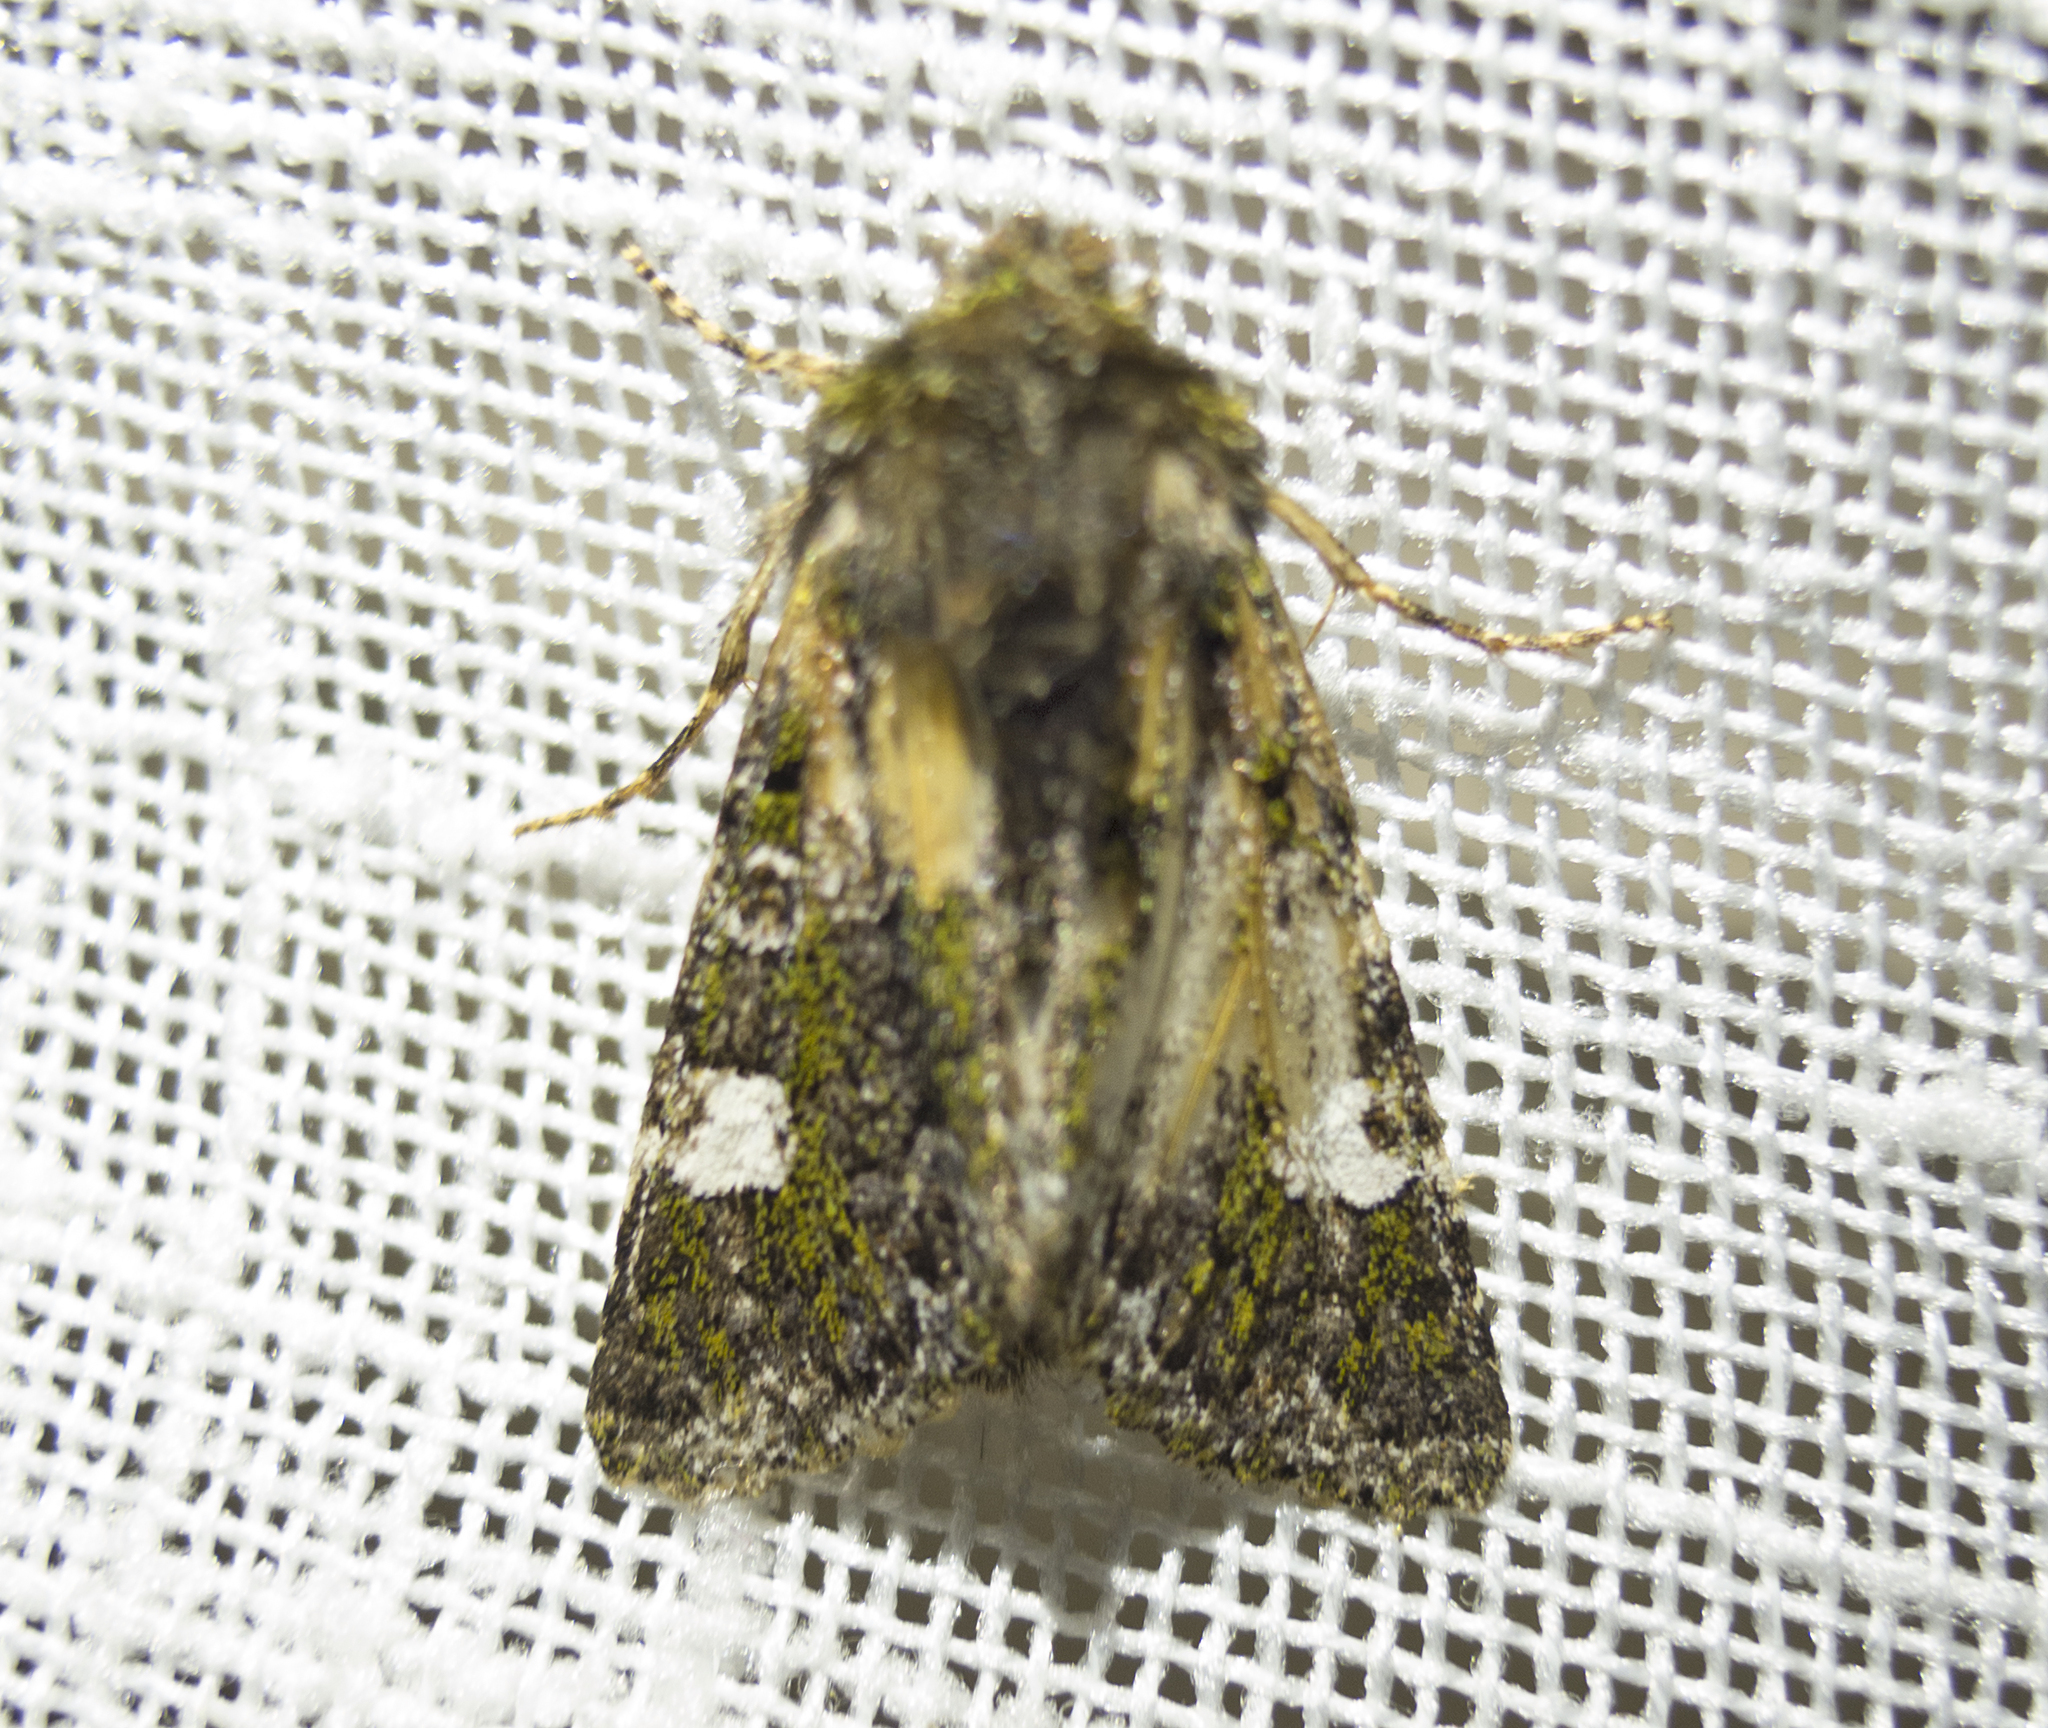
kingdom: Animalia
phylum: Arthropoda
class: Insecta
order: Lepidoptera
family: Noctuidae
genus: Valeria
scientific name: Valeria oleagina
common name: Green-brindled dot
